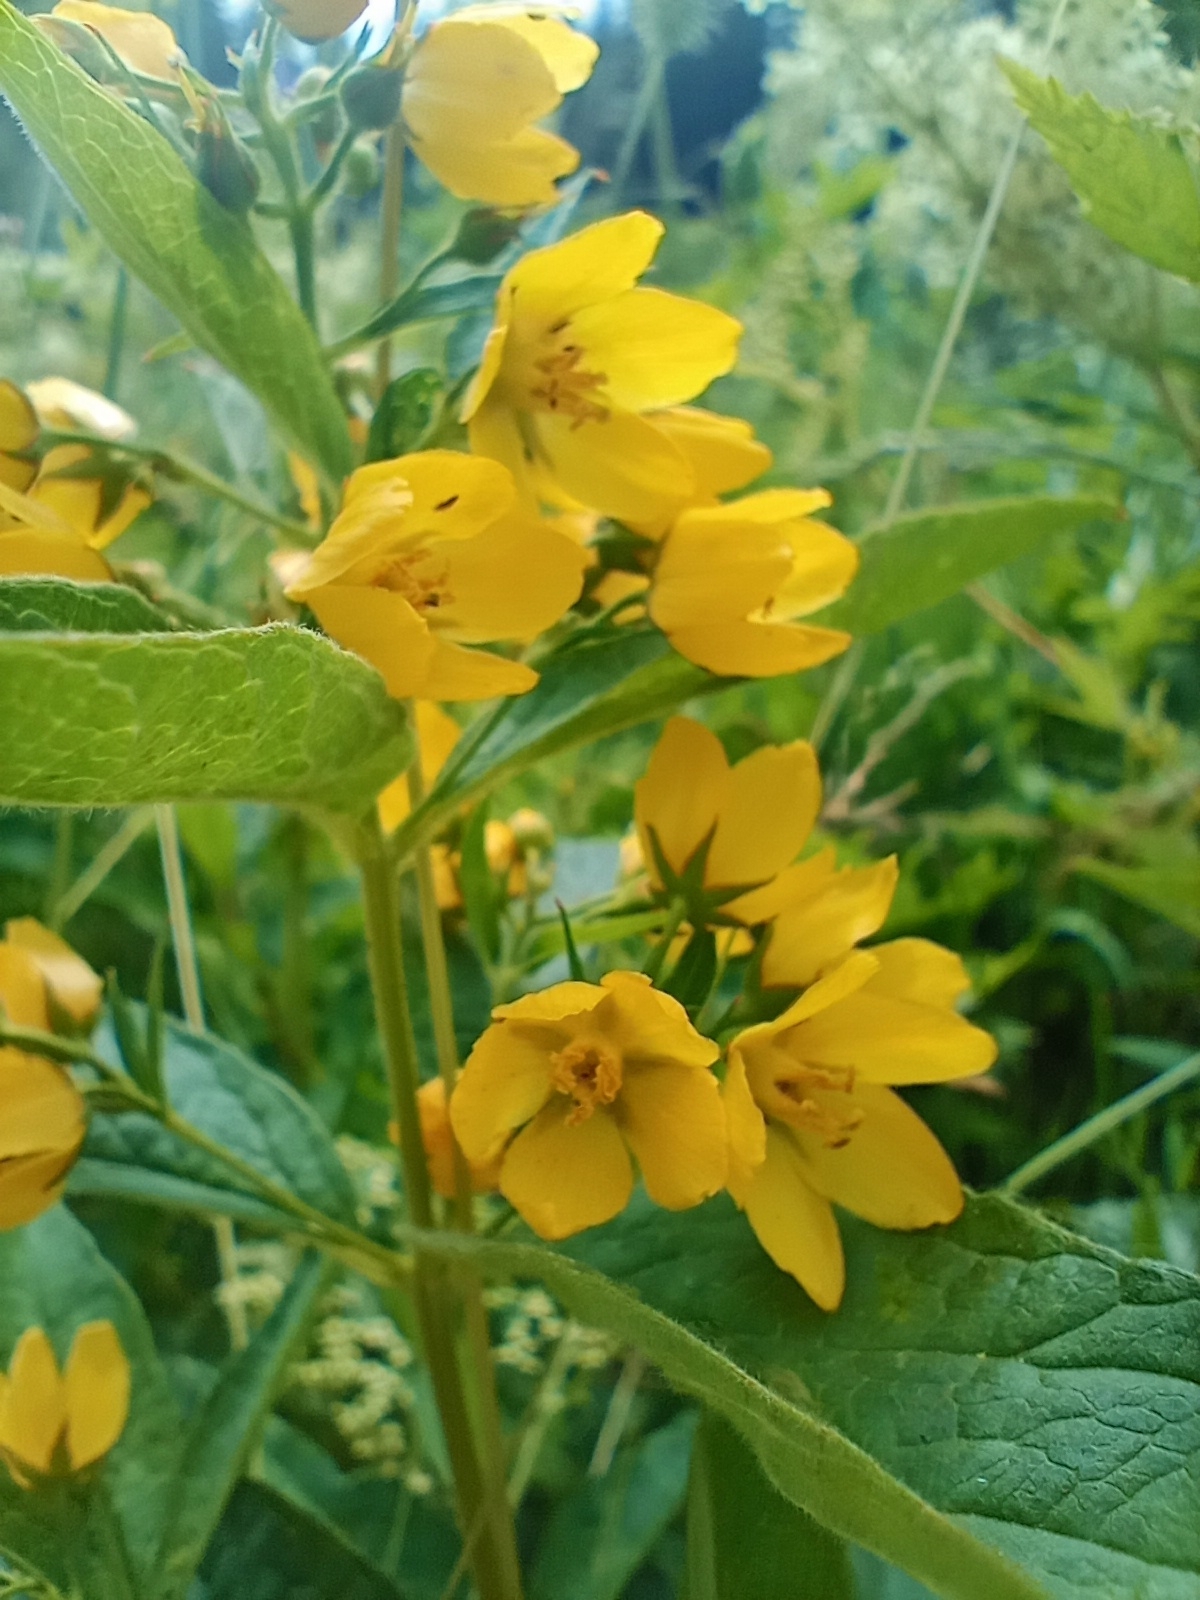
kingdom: Plantae
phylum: Tracheophyta
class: Magnoliopsida
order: Ericales
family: Primulaceae
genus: Lysimachia
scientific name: Lysimachia vulgaris
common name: Yellow loosestrife
